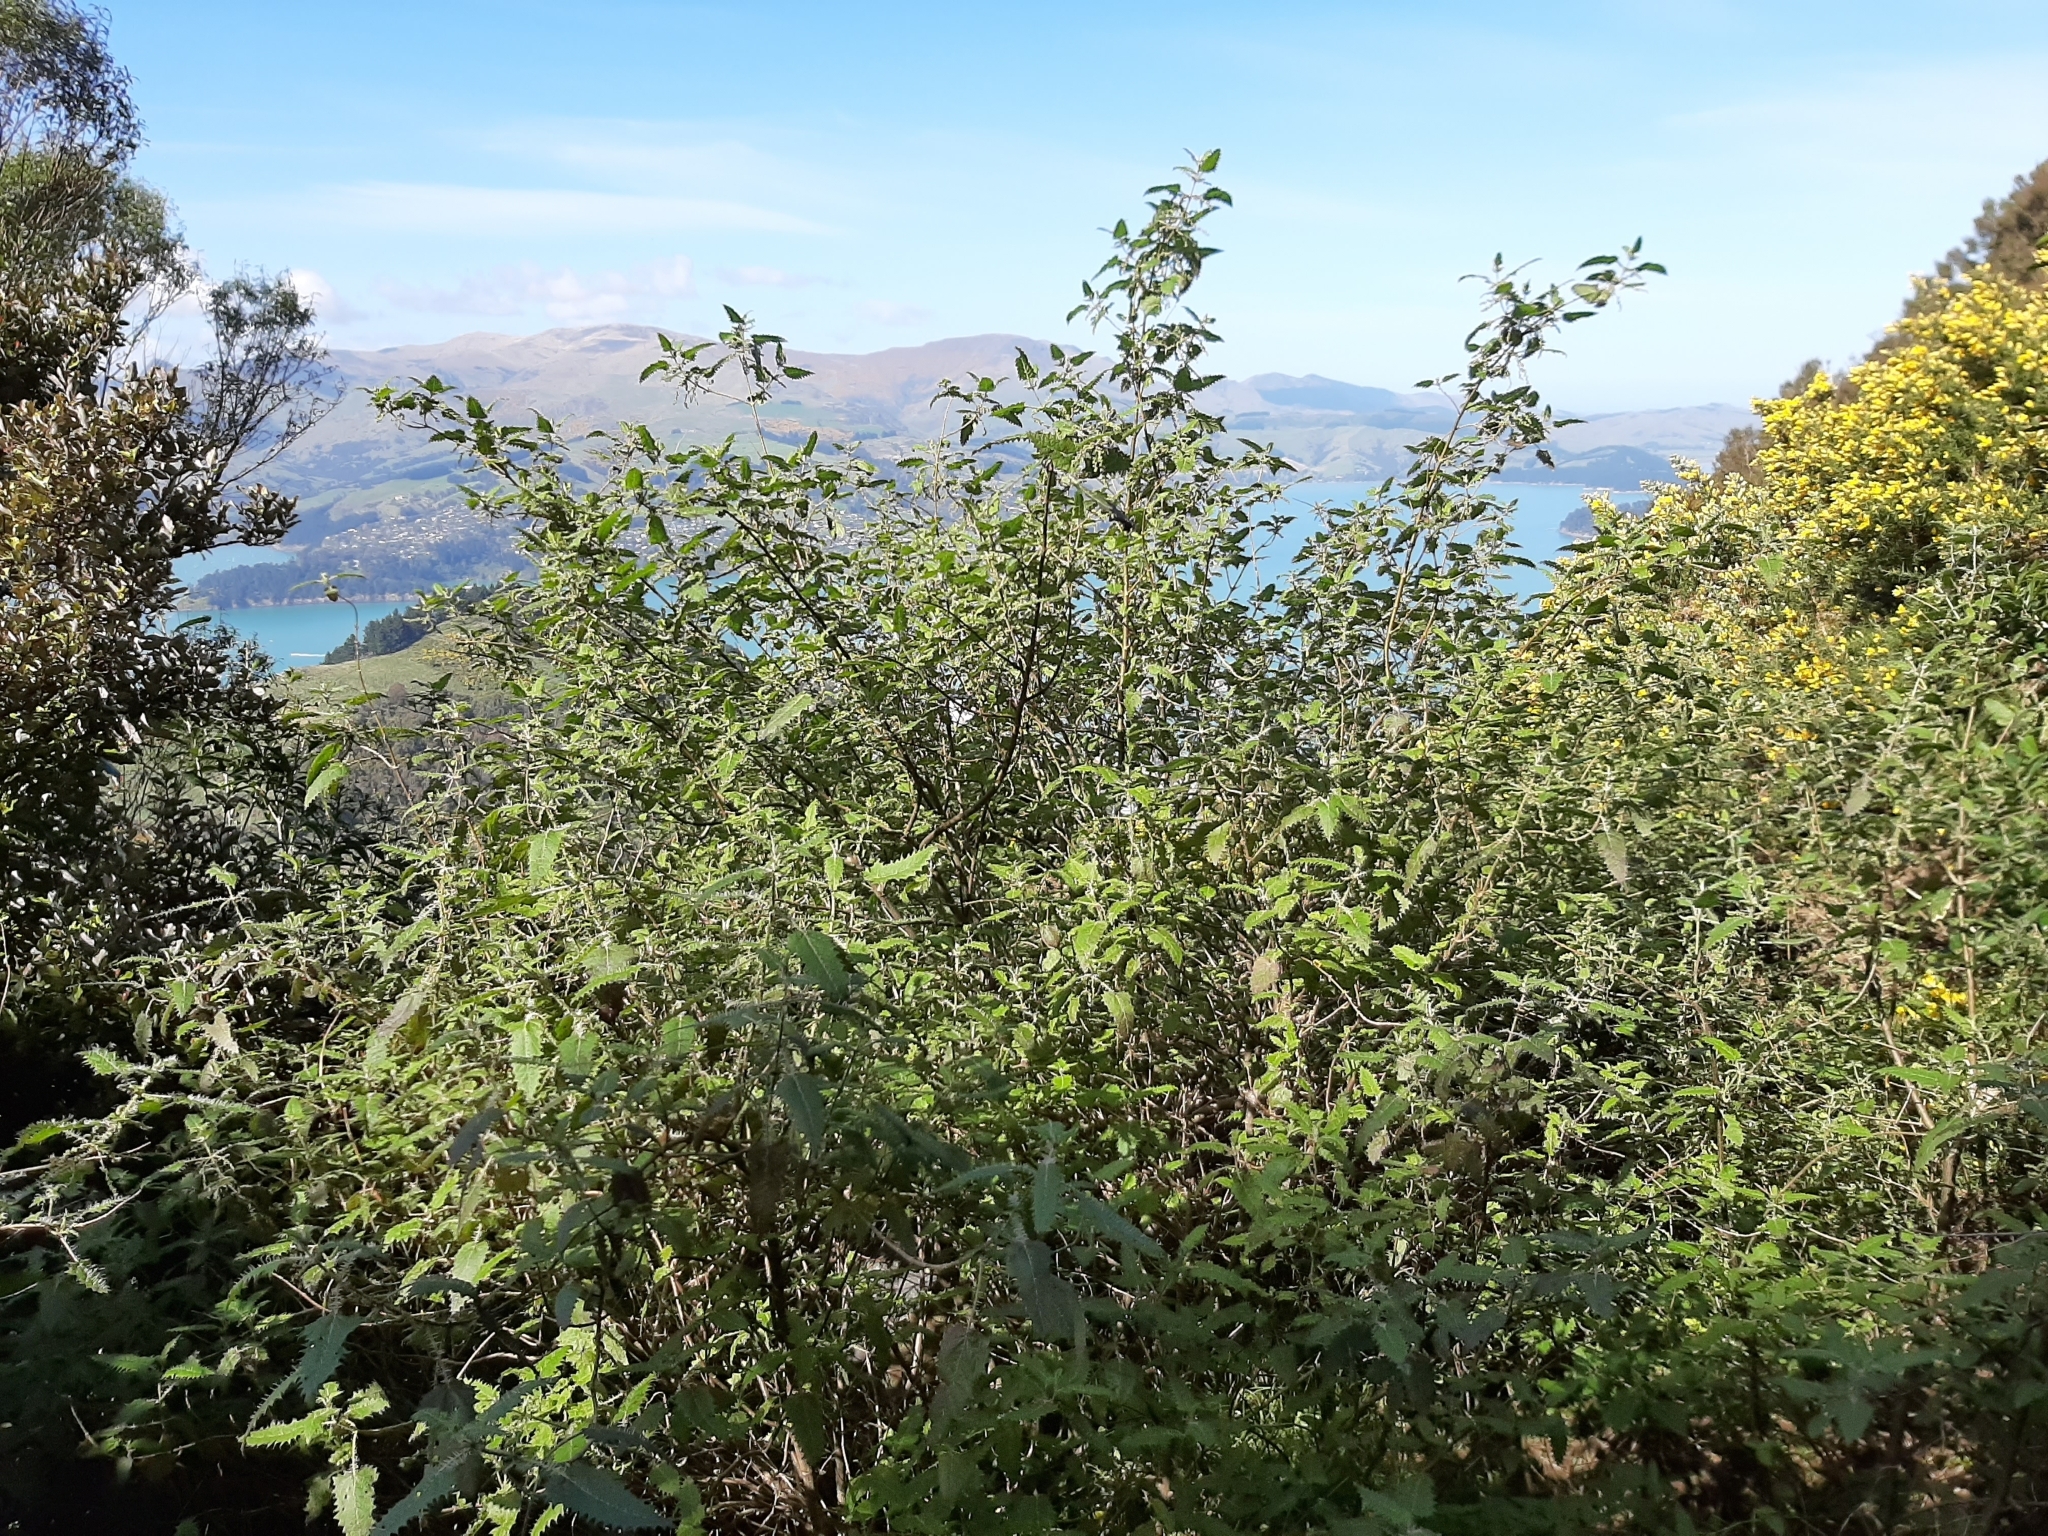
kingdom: Plantae
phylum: Tracheophyta
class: Magnoliopsida
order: Rosales
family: Urticaceae
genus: Urtica
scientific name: Urtica ferox
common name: Tree nettle
